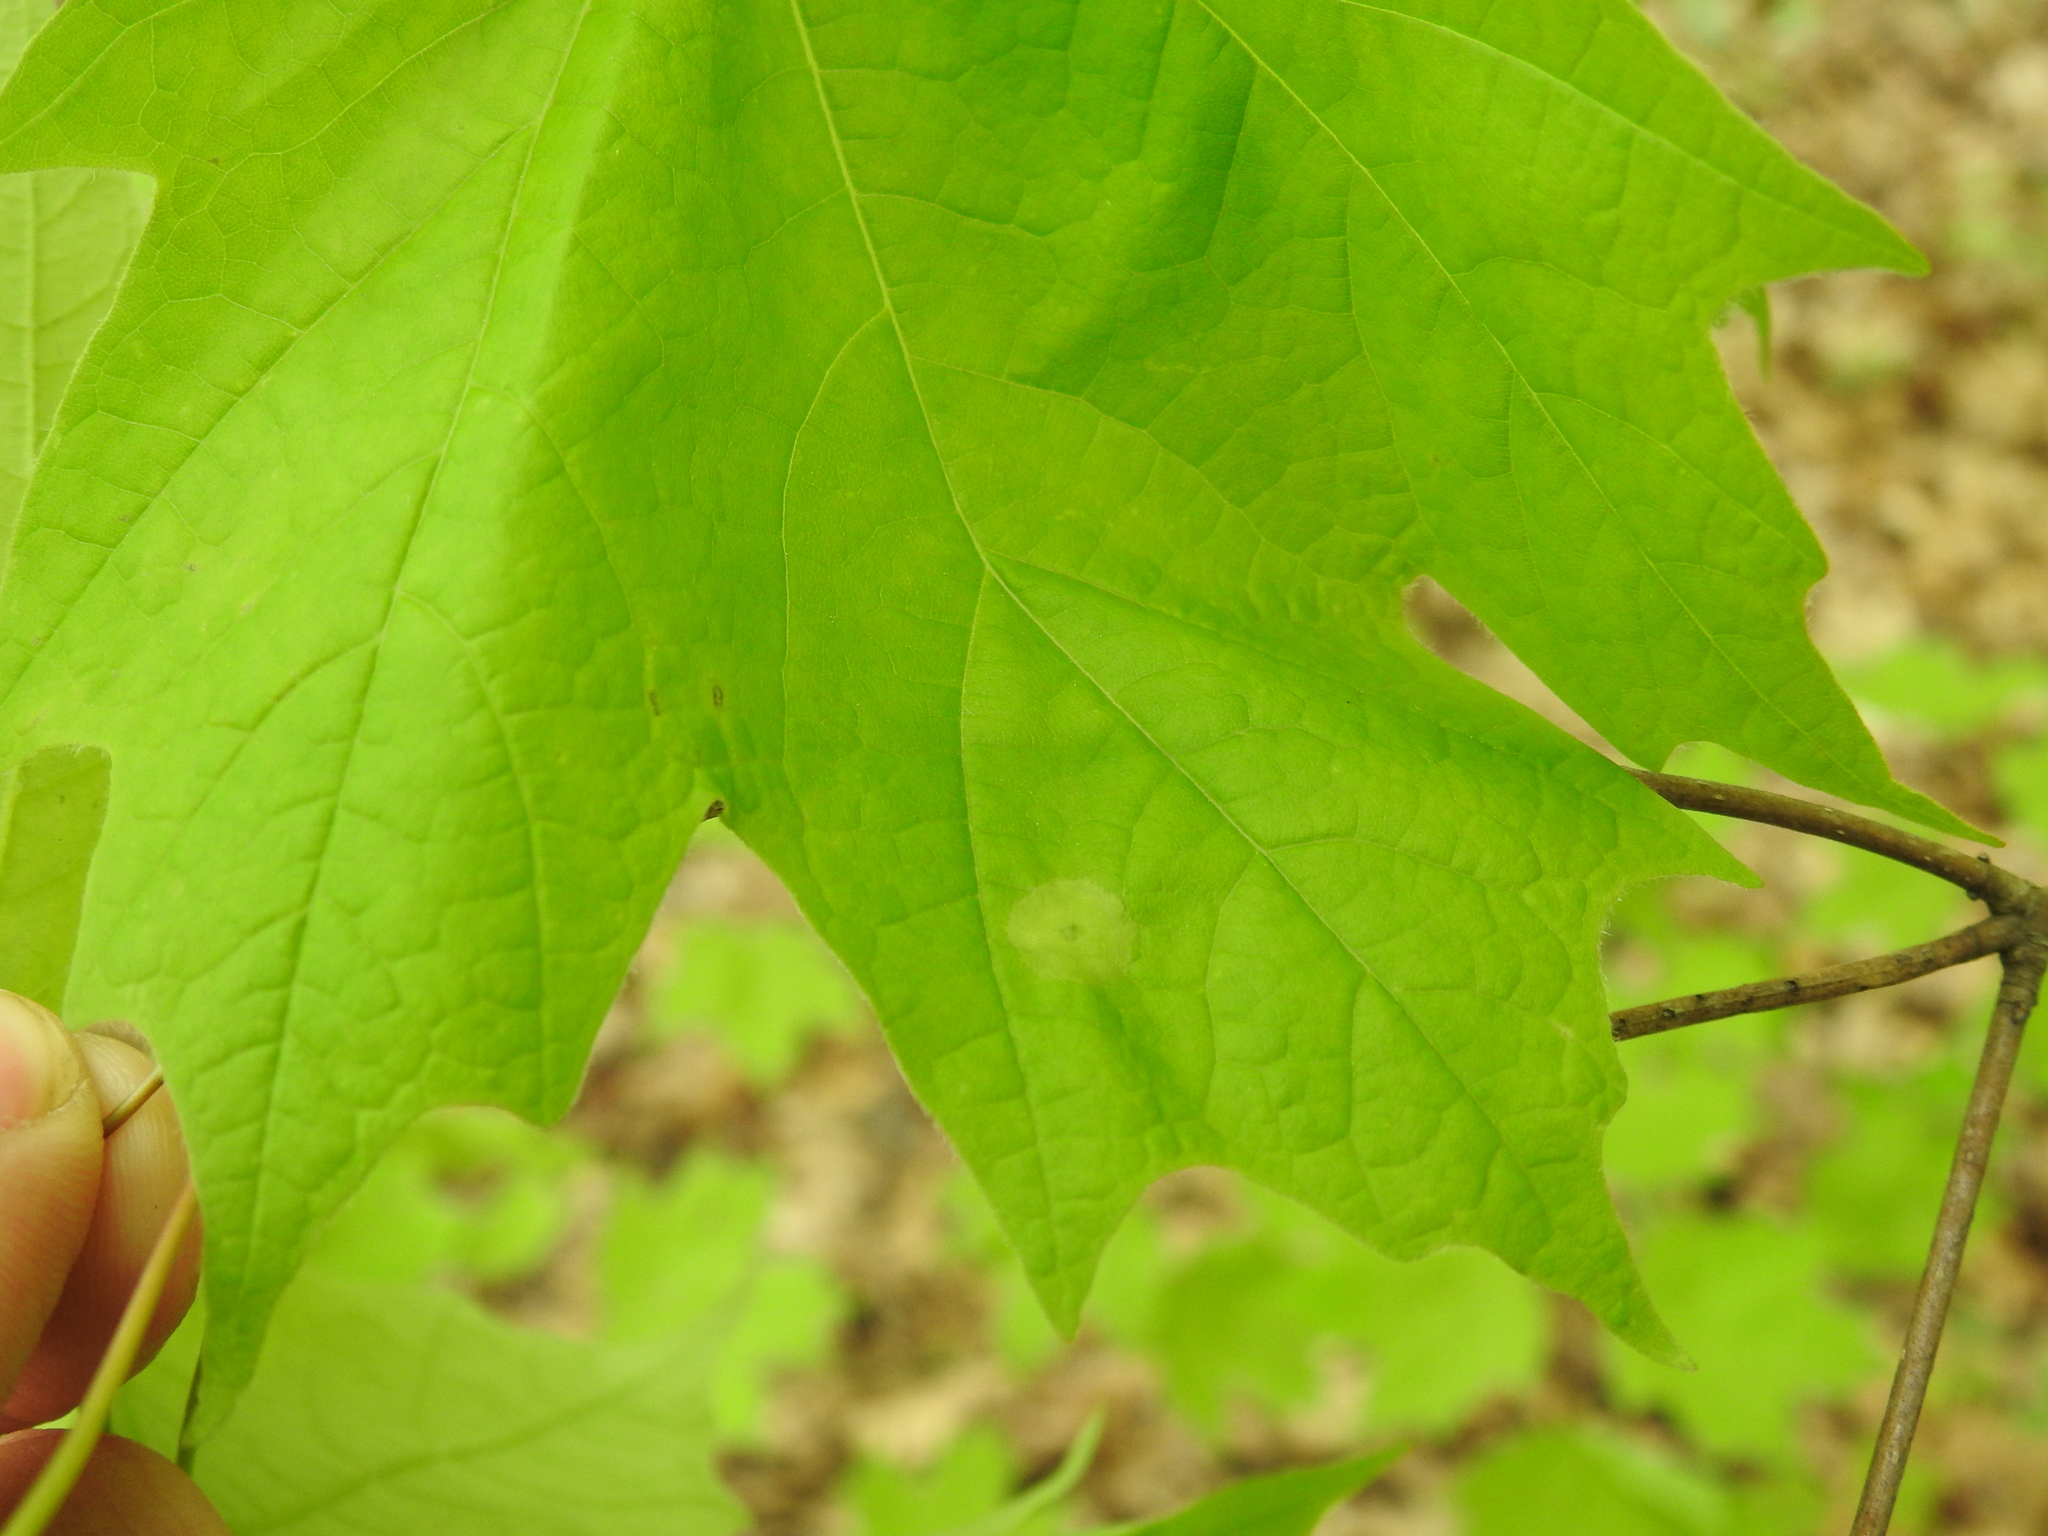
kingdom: Animalia
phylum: Arthropoda
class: Insecta
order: Diptera
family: Cecidomyiidae
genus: Acericecis
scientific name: Acericecis ocellaris
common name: Ocellate gall midge
